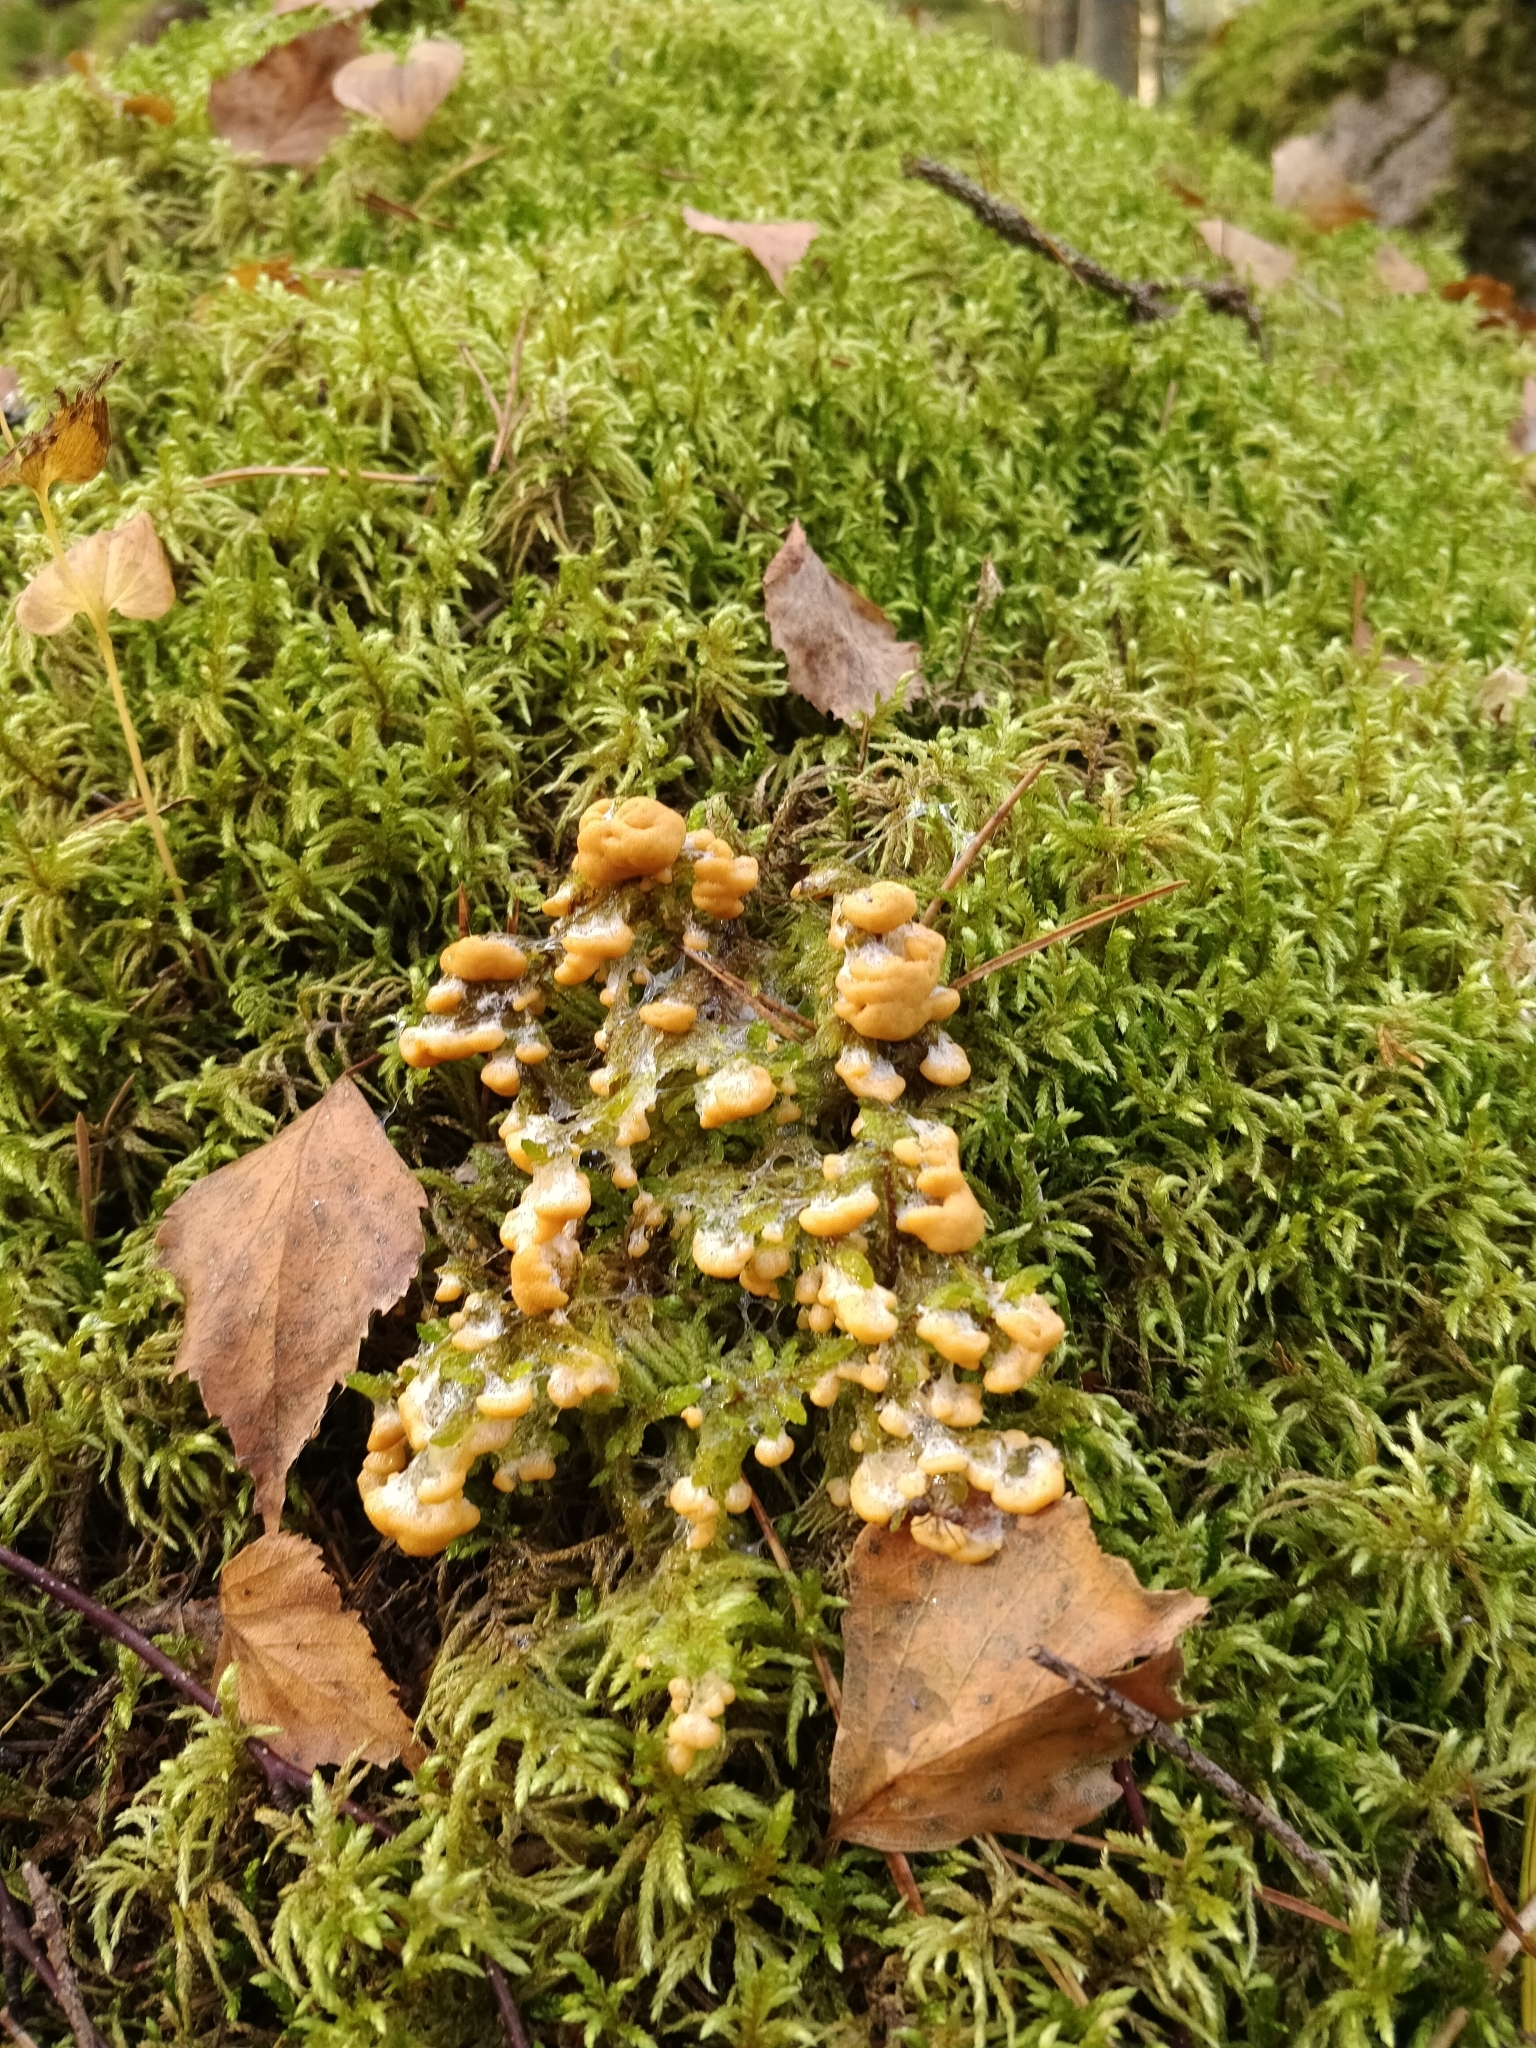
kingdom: Protozoa
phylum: Mycetozoa
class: Myxomycetes
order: Physarales
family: Physaraceae
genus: Fuligo
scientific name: Fuligo muscorum
